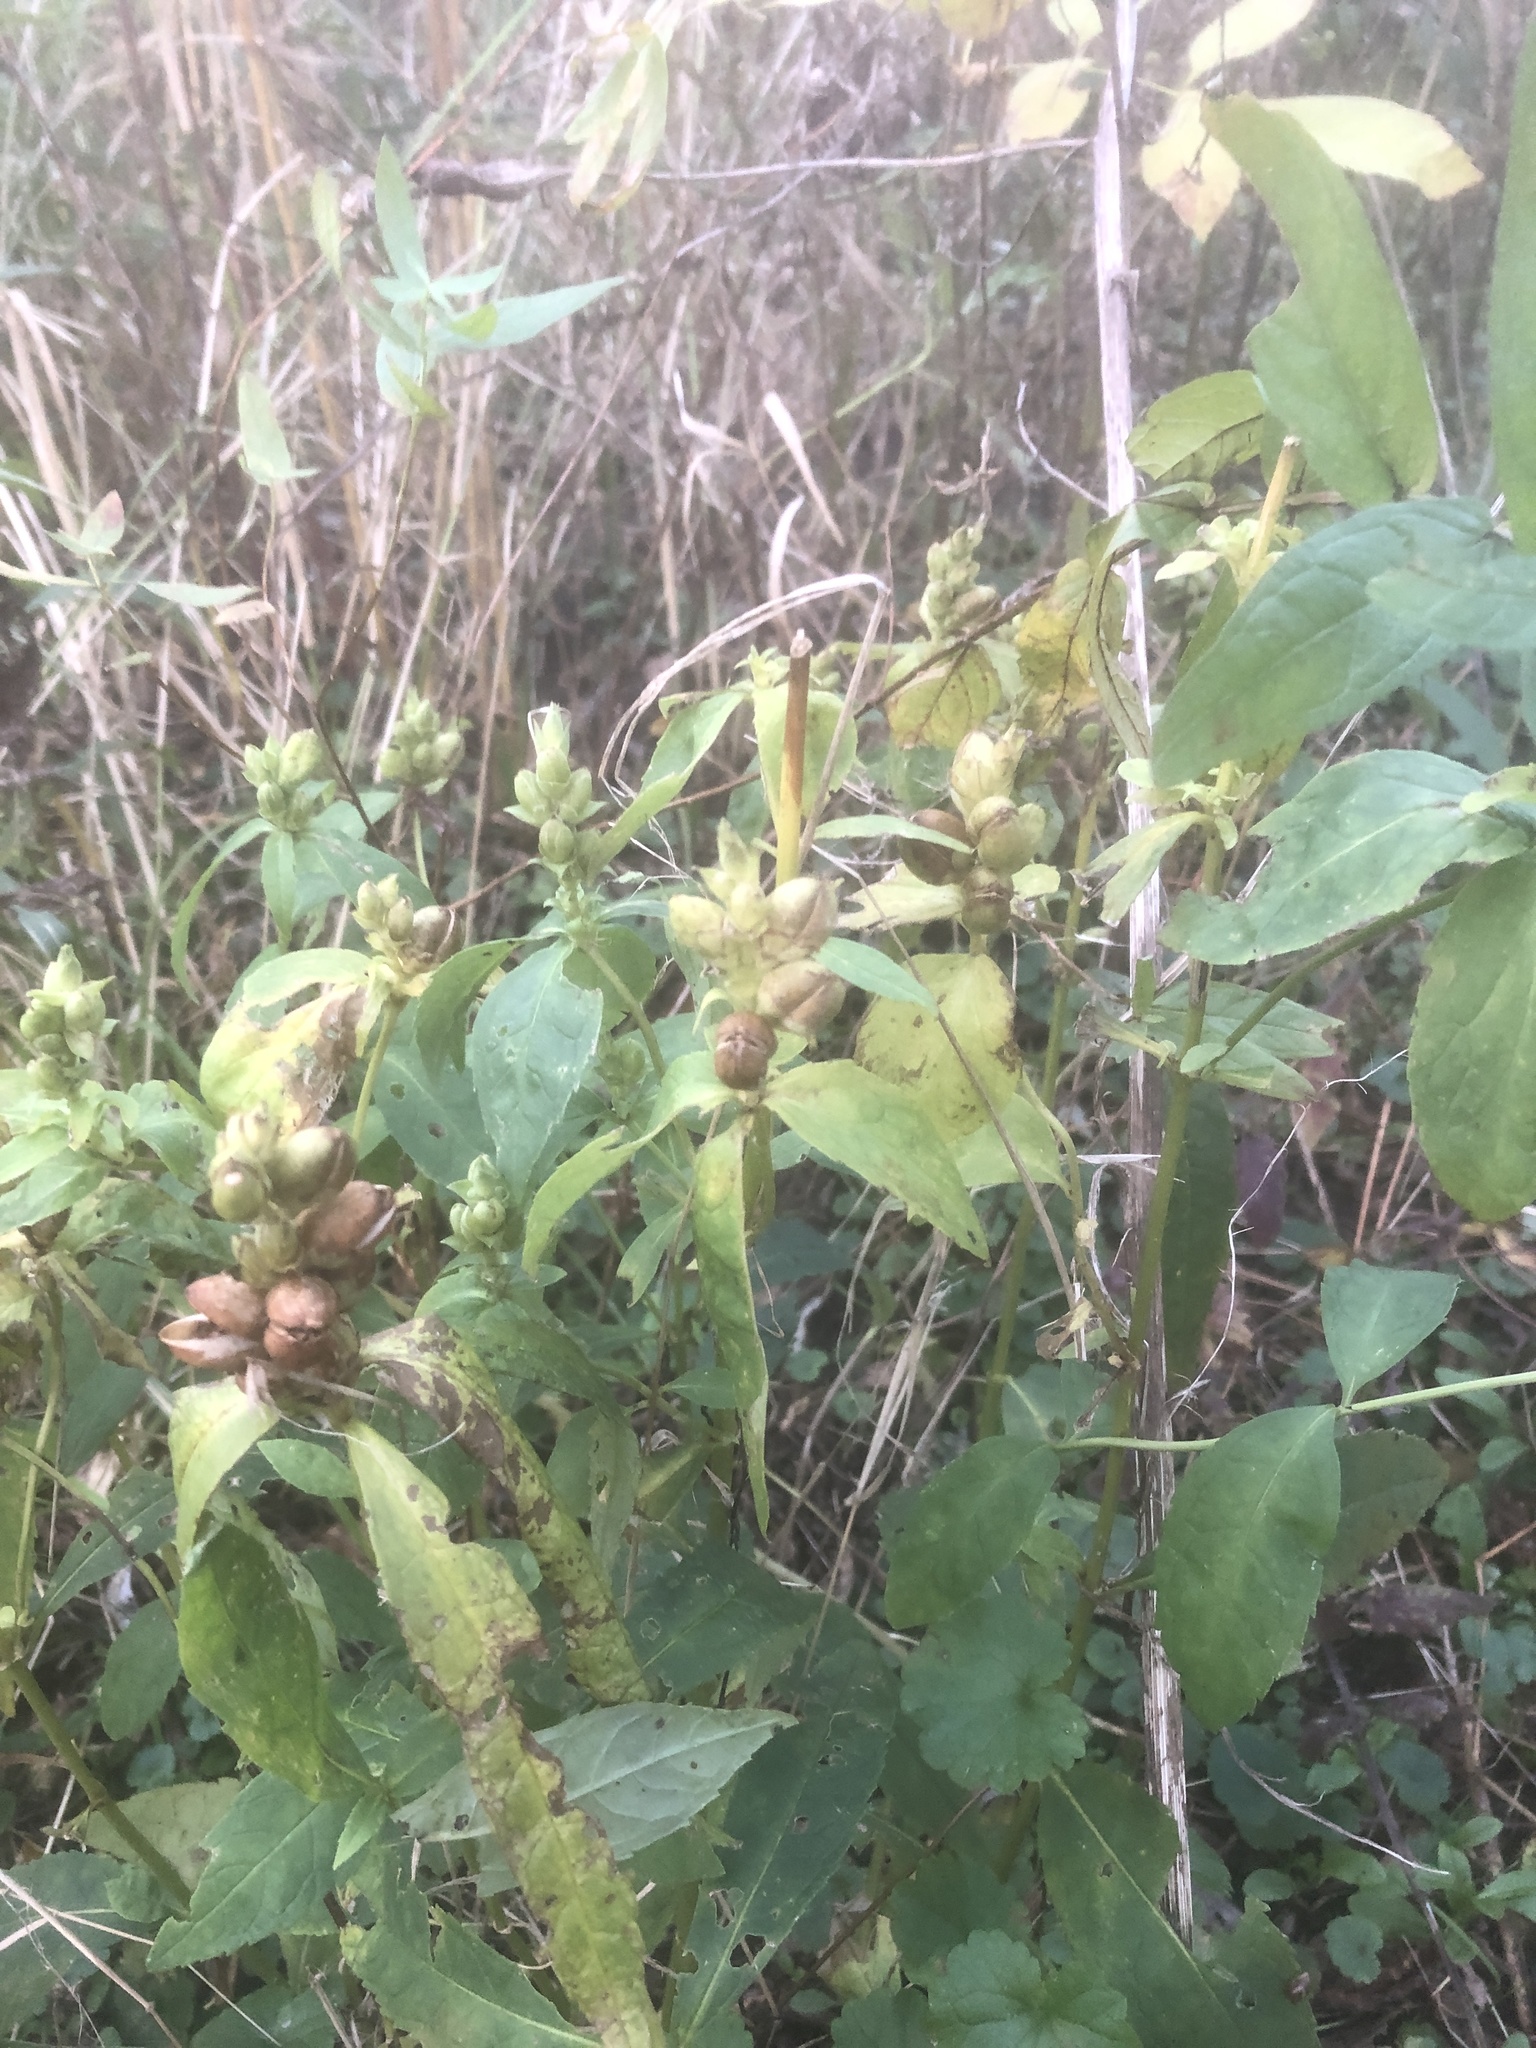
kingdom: Plantae
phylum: Tracheophyta
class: Magnoliopsida
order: Lamiales
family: Plantaginaceae
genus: Chelone
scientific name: Chelone glabra
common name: Snakehead
